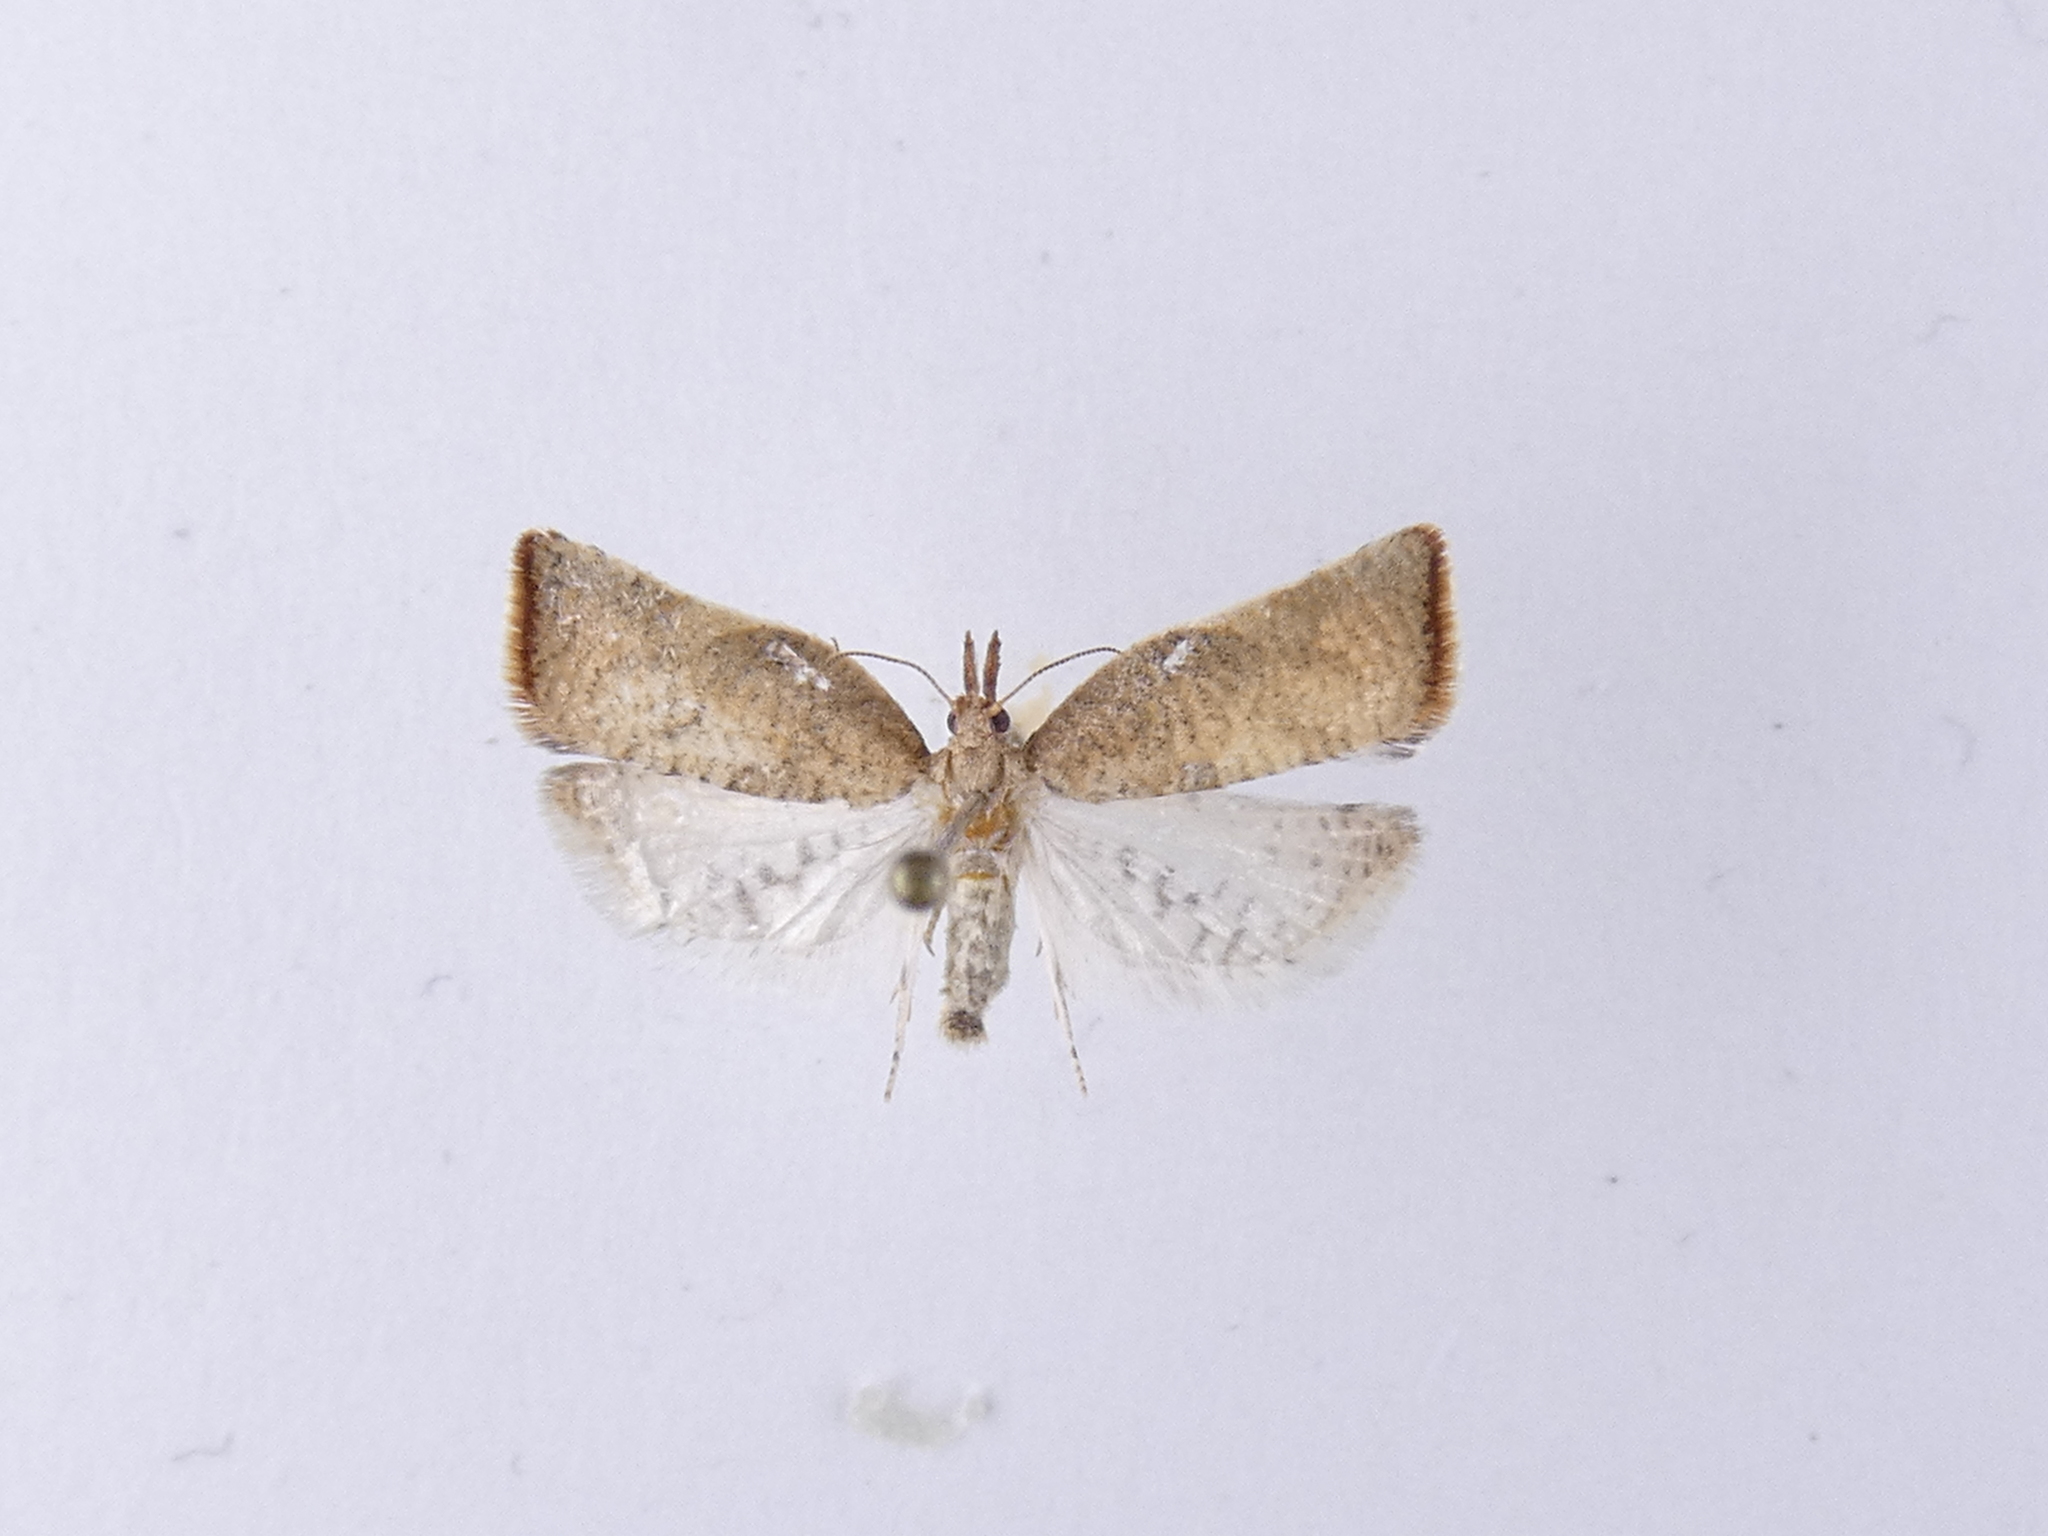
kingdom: Animalia
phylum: Arthropoda
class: Insecta
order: Lepidoptera
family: Tortricidae
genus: Catamacta
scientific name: Catamacta gavisana
